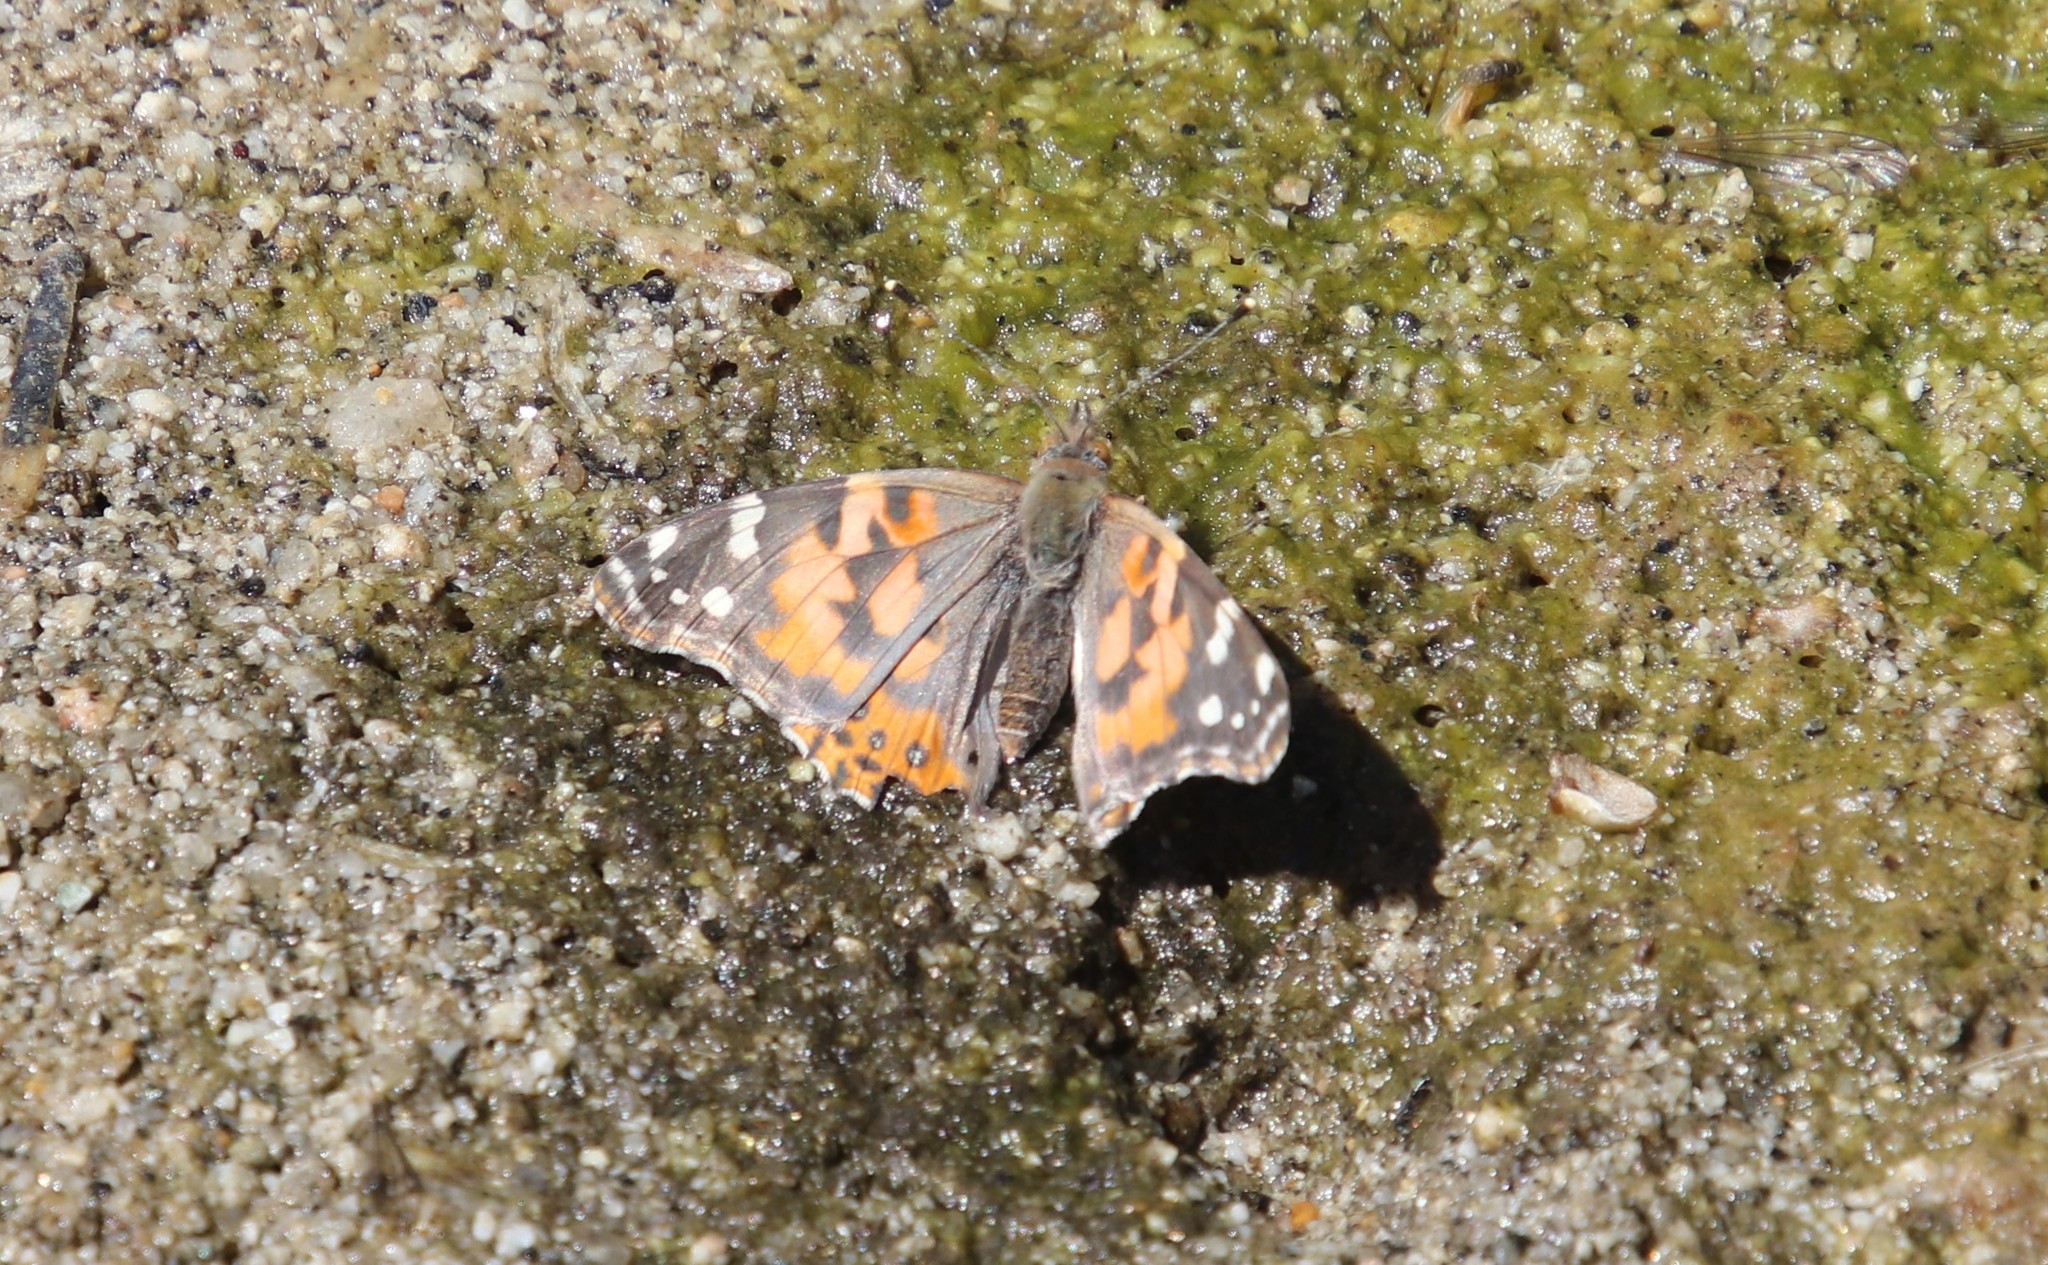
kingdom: Animalia
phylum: Arthropoda
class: Insecta
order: Lepidoptera
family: Nymphalidae
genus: Vanessa
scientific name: Vanessa cardui
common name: Painted lady
